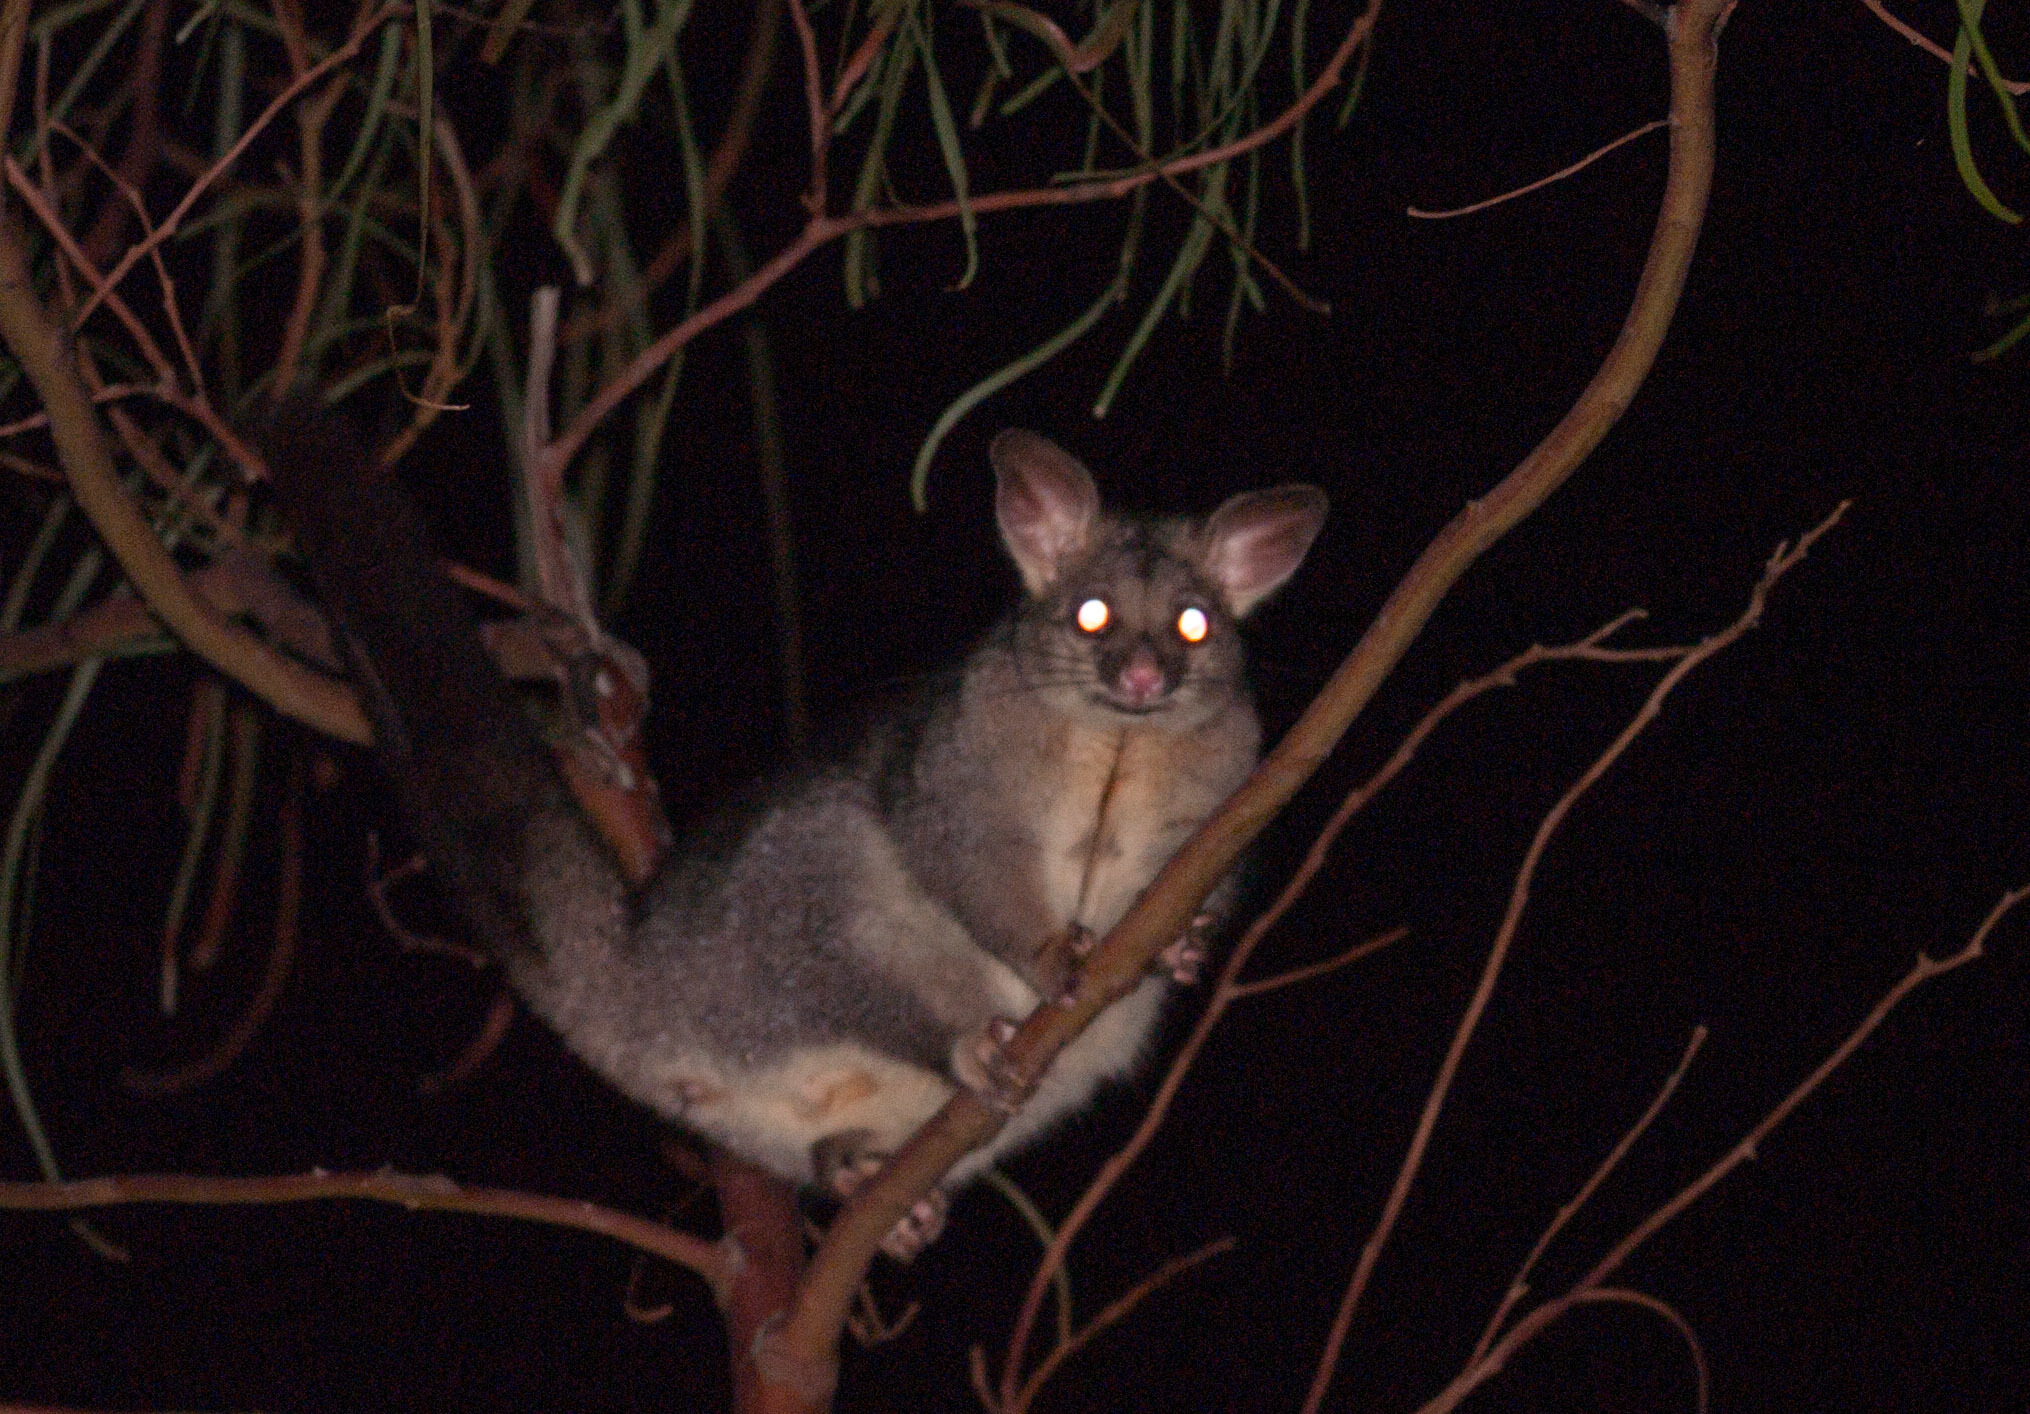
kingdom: Animalia
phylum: Chordata
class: Mammalia
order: Diprotodontia
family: Phalangeridae
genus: Trichosurus
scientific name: Trichosurus vulpecula
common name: Common brushtail
